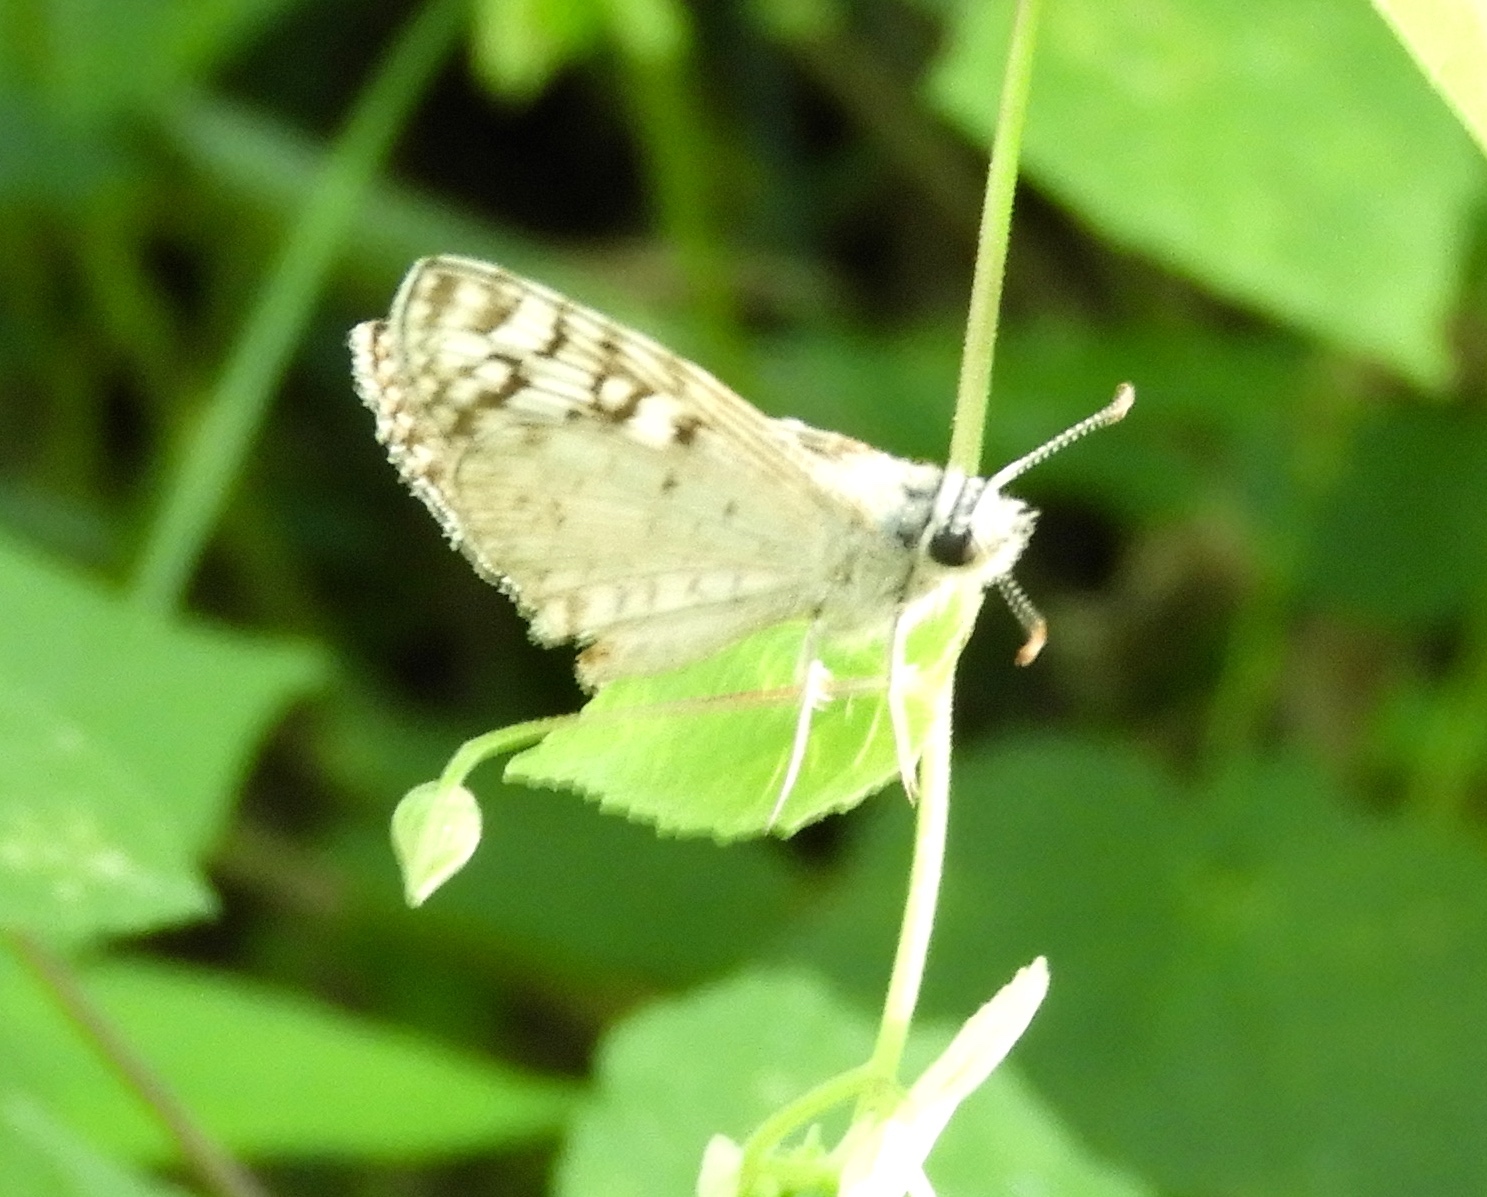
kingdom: Animalia
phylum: Arthropoda
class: Insecta
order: Lepidoptera
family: Hesperiidae
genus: Burnsius
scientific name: Burnsius
